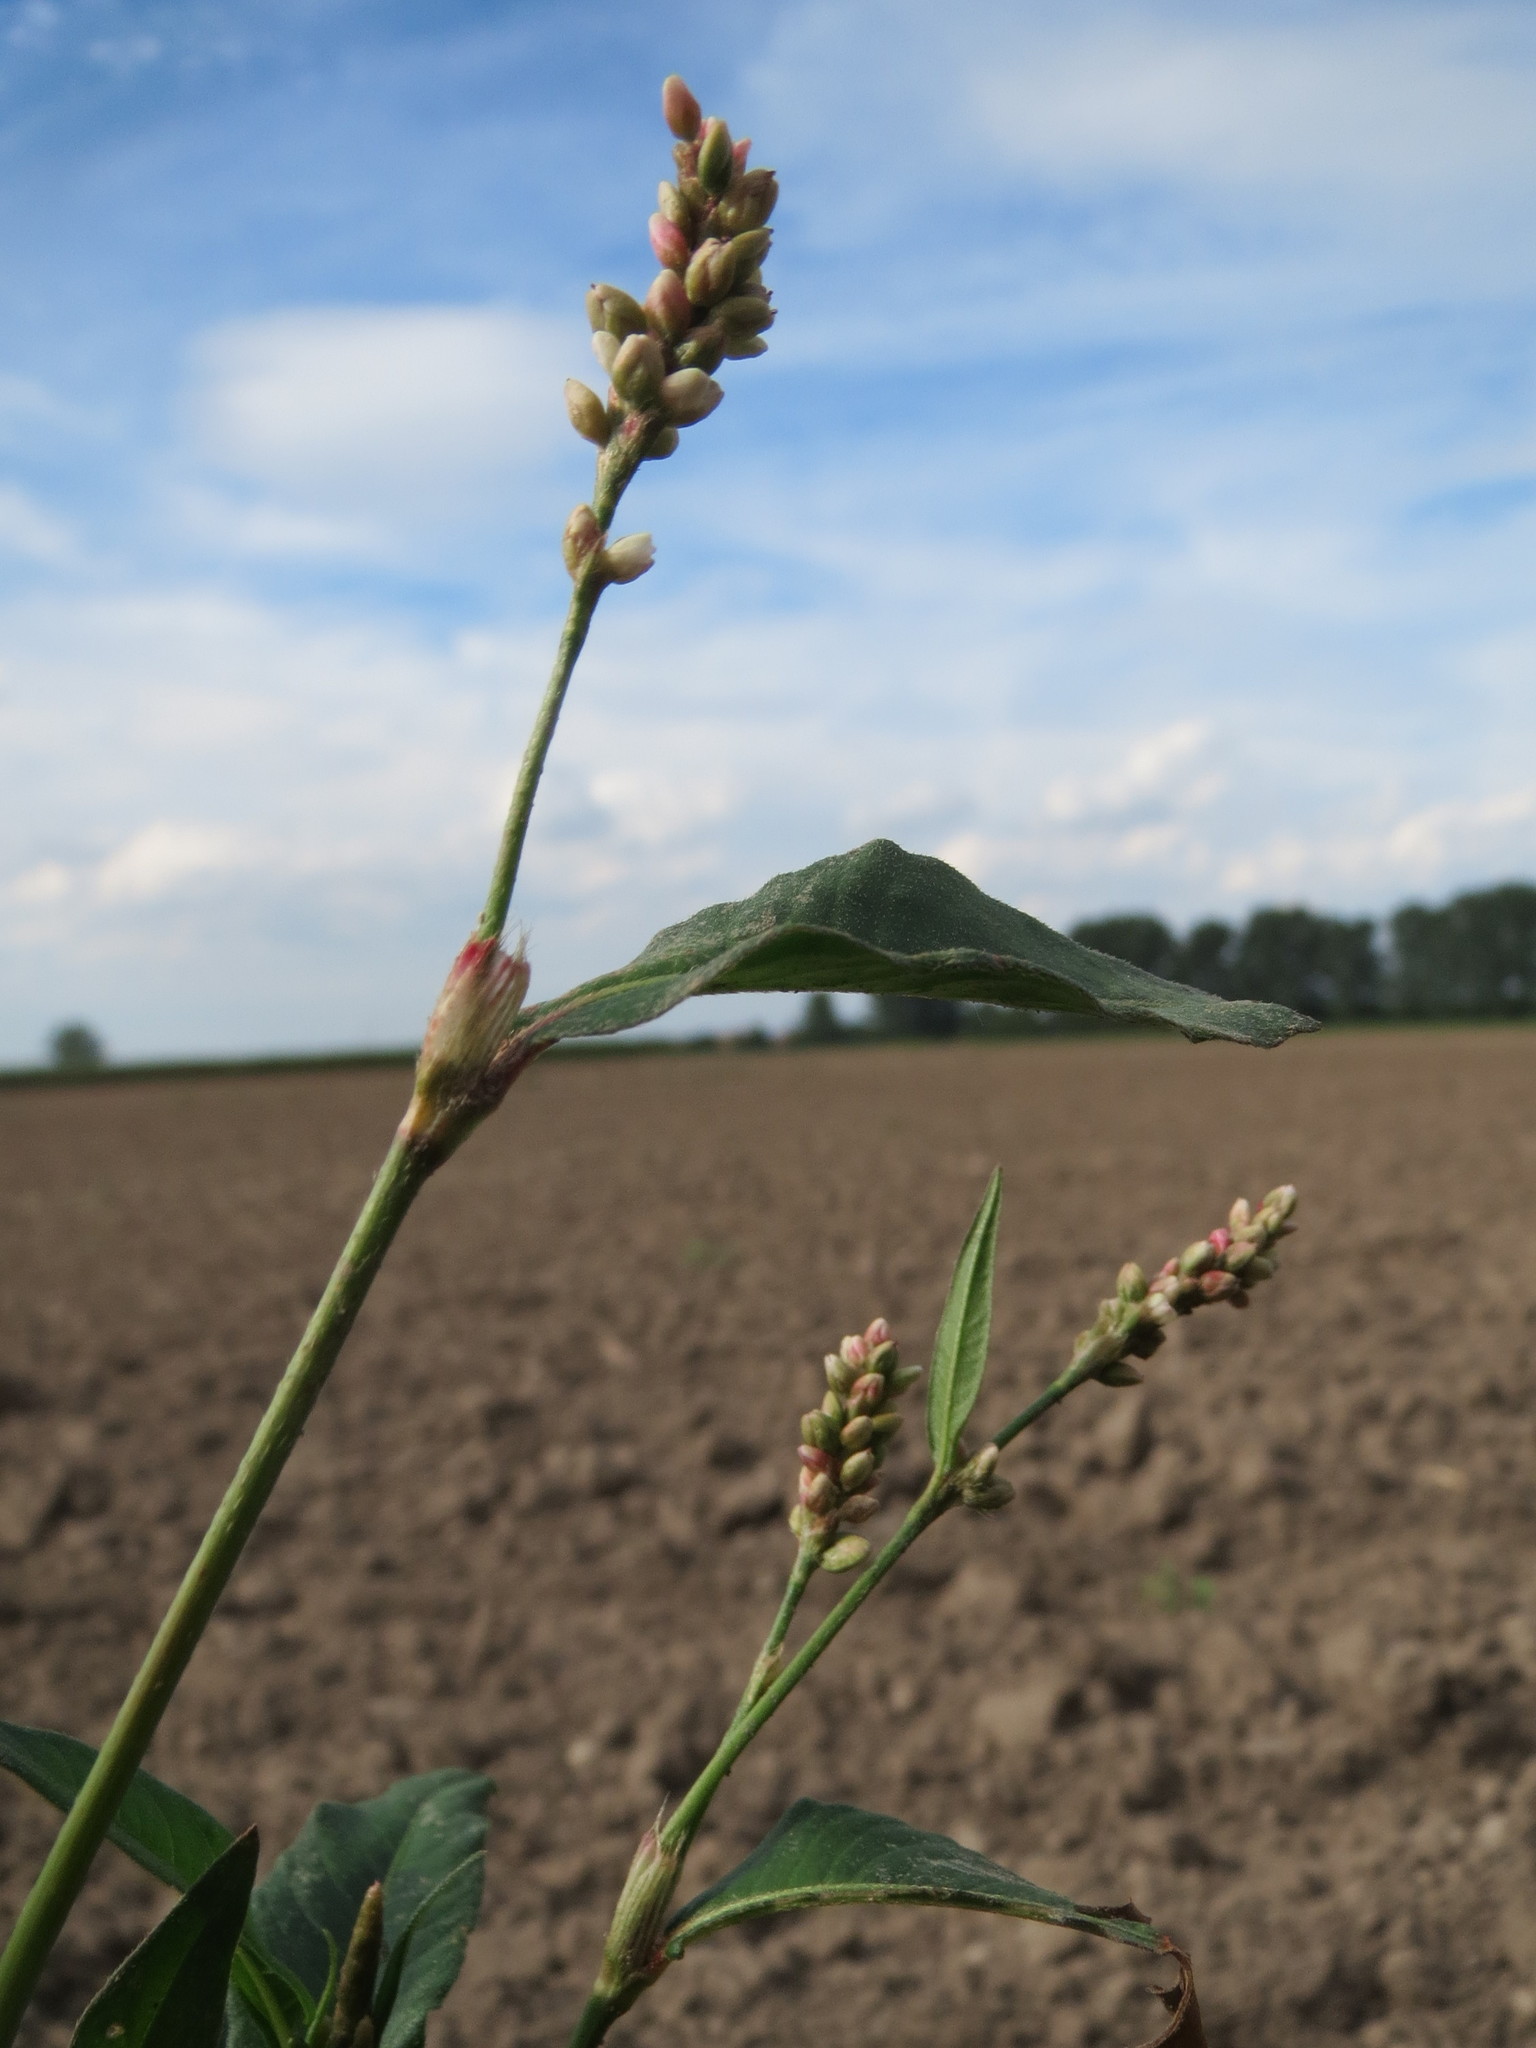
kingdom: Plantae
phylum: Tracheophyta
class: Magnoliopsida
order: Caryophyllales
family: Polygonaceae
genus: Persicaria
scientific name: Persicaria lapathifolia
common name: Curlytop knotweed
